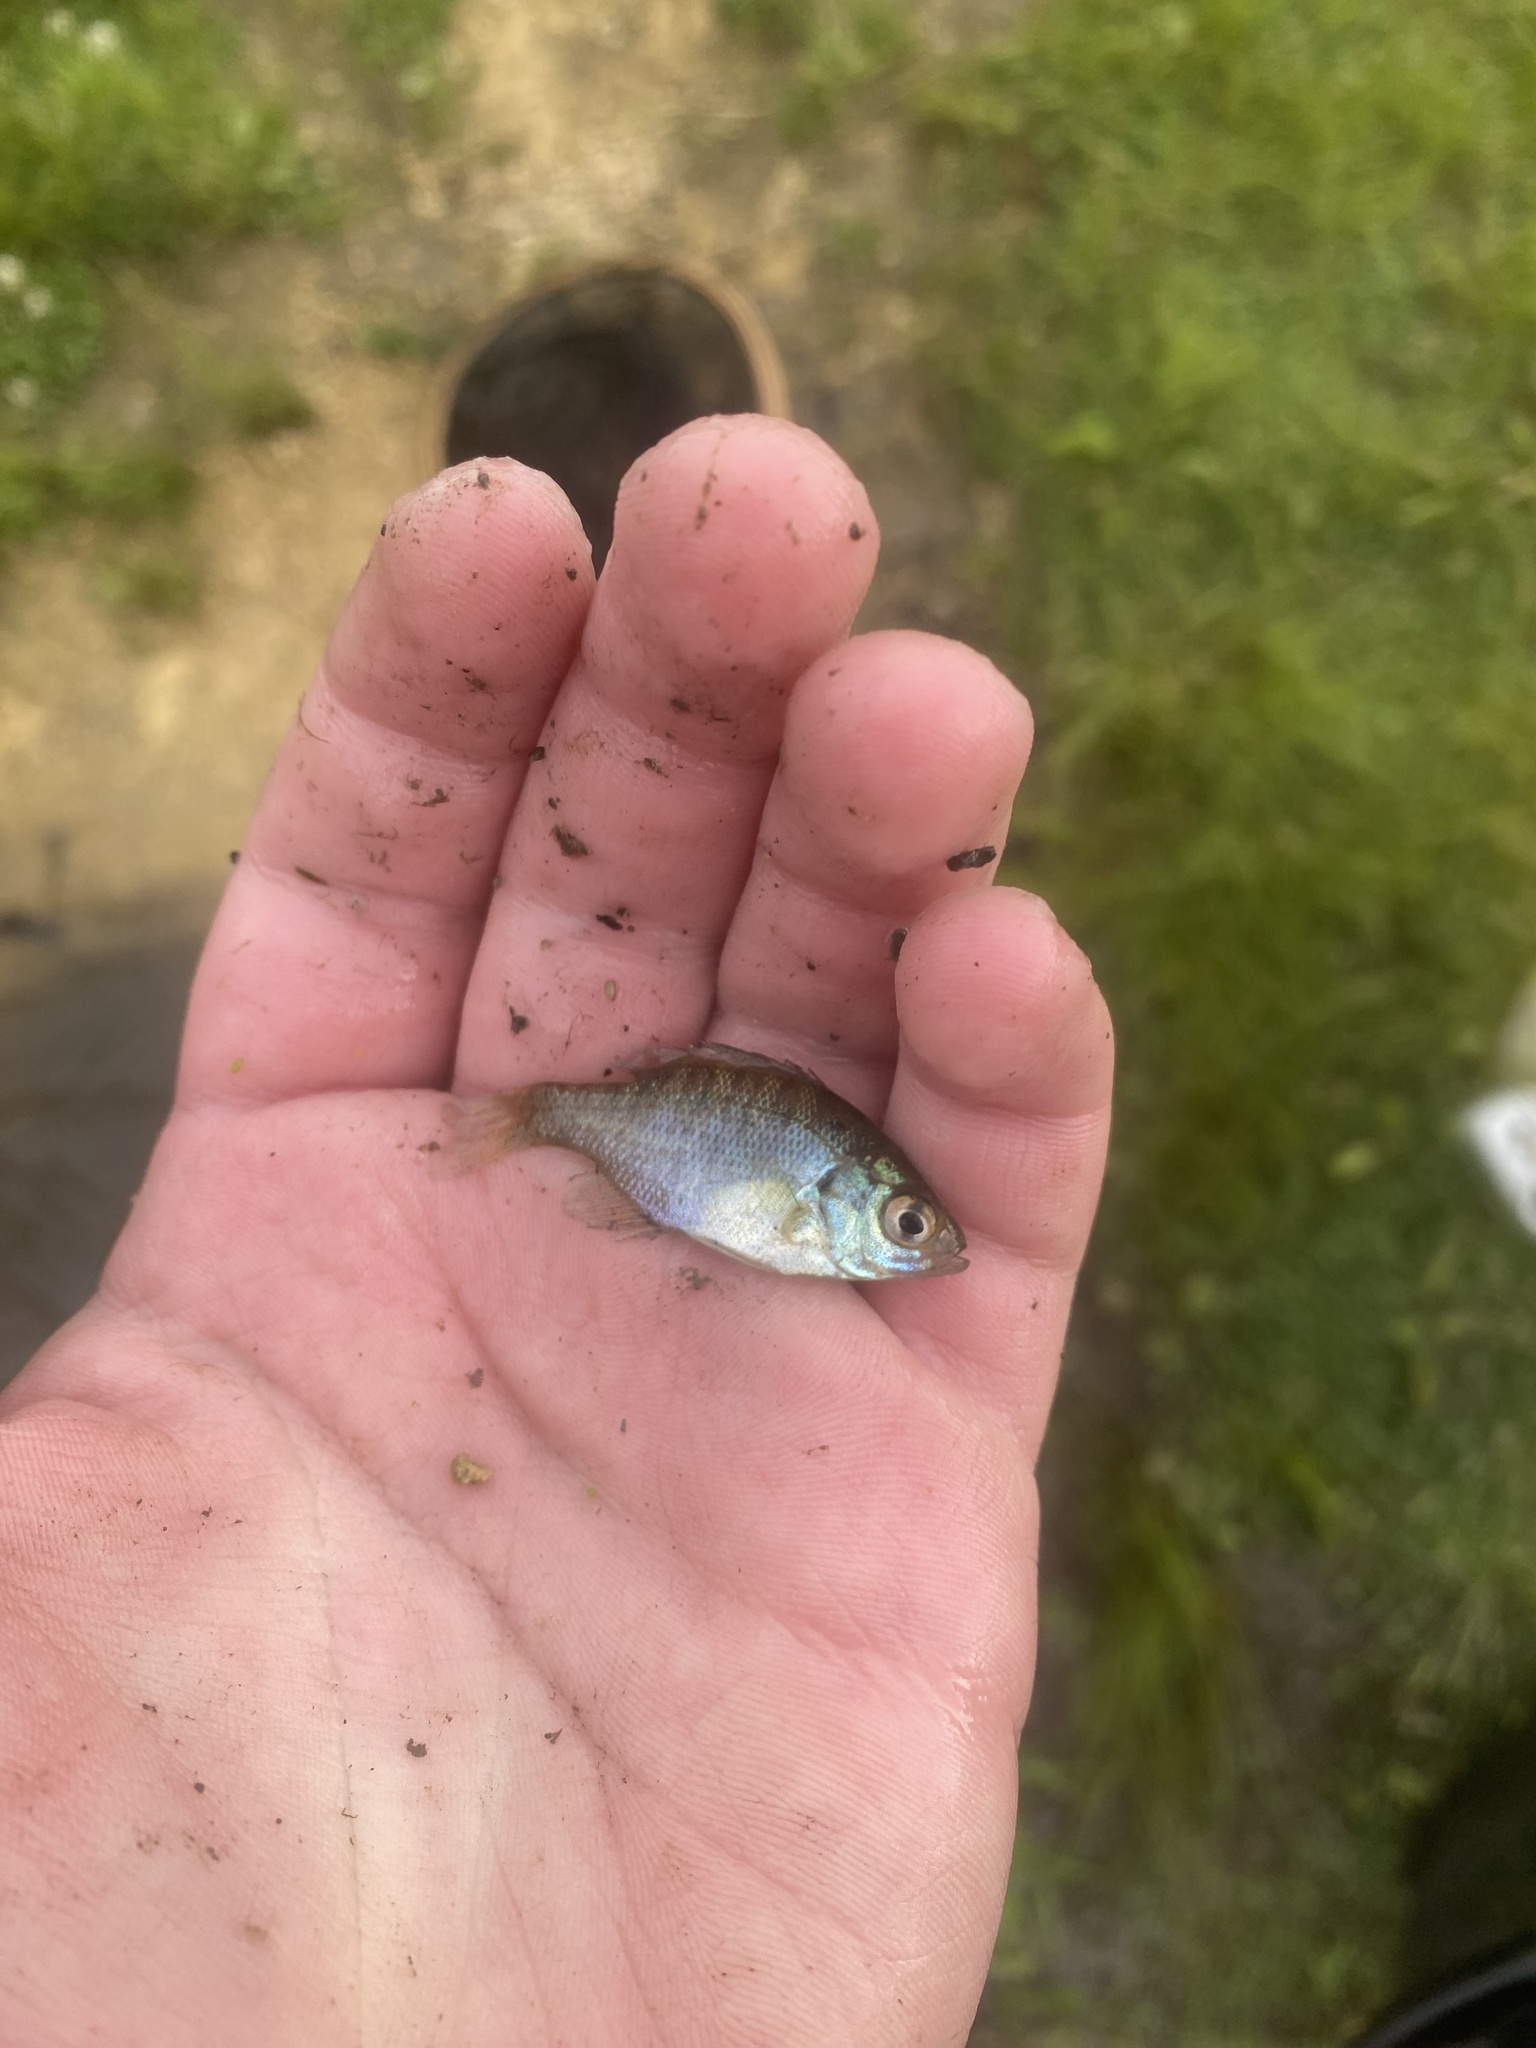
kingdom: Animalia
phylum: Chordata
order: Perciformes
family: Centrarchidae
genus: Lepomis
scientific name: Lepomis macrochirus
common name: Bluegill
